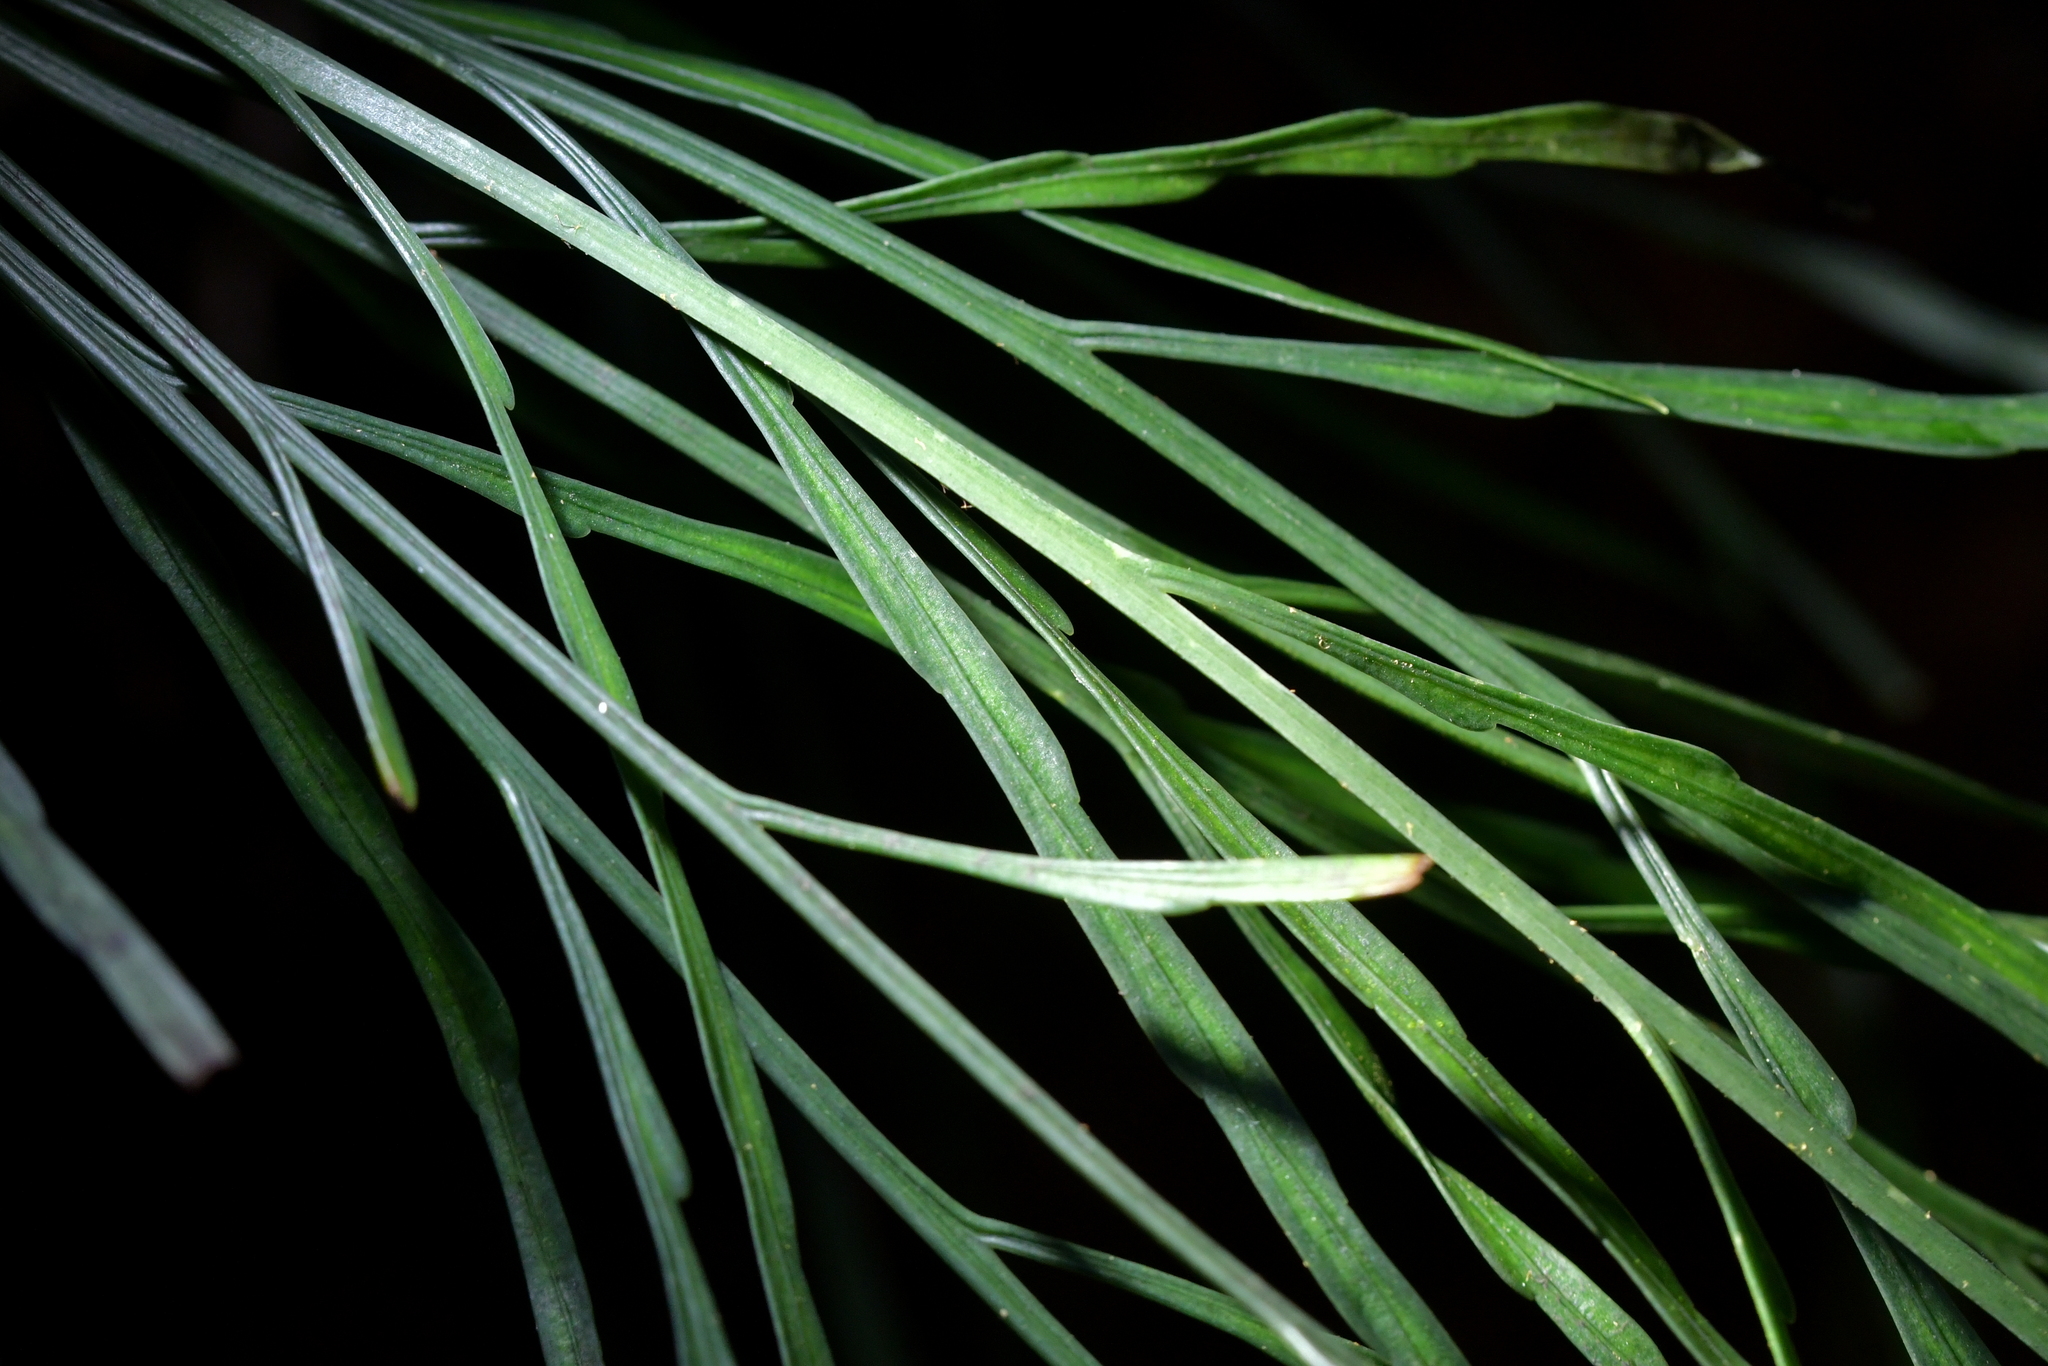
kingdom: Plantae
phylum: Tracheophyta
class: Polypodiopsida
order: Polypodiales
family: Aspleniaceae
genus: Asplenium
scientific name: Asplenium flaccidum
